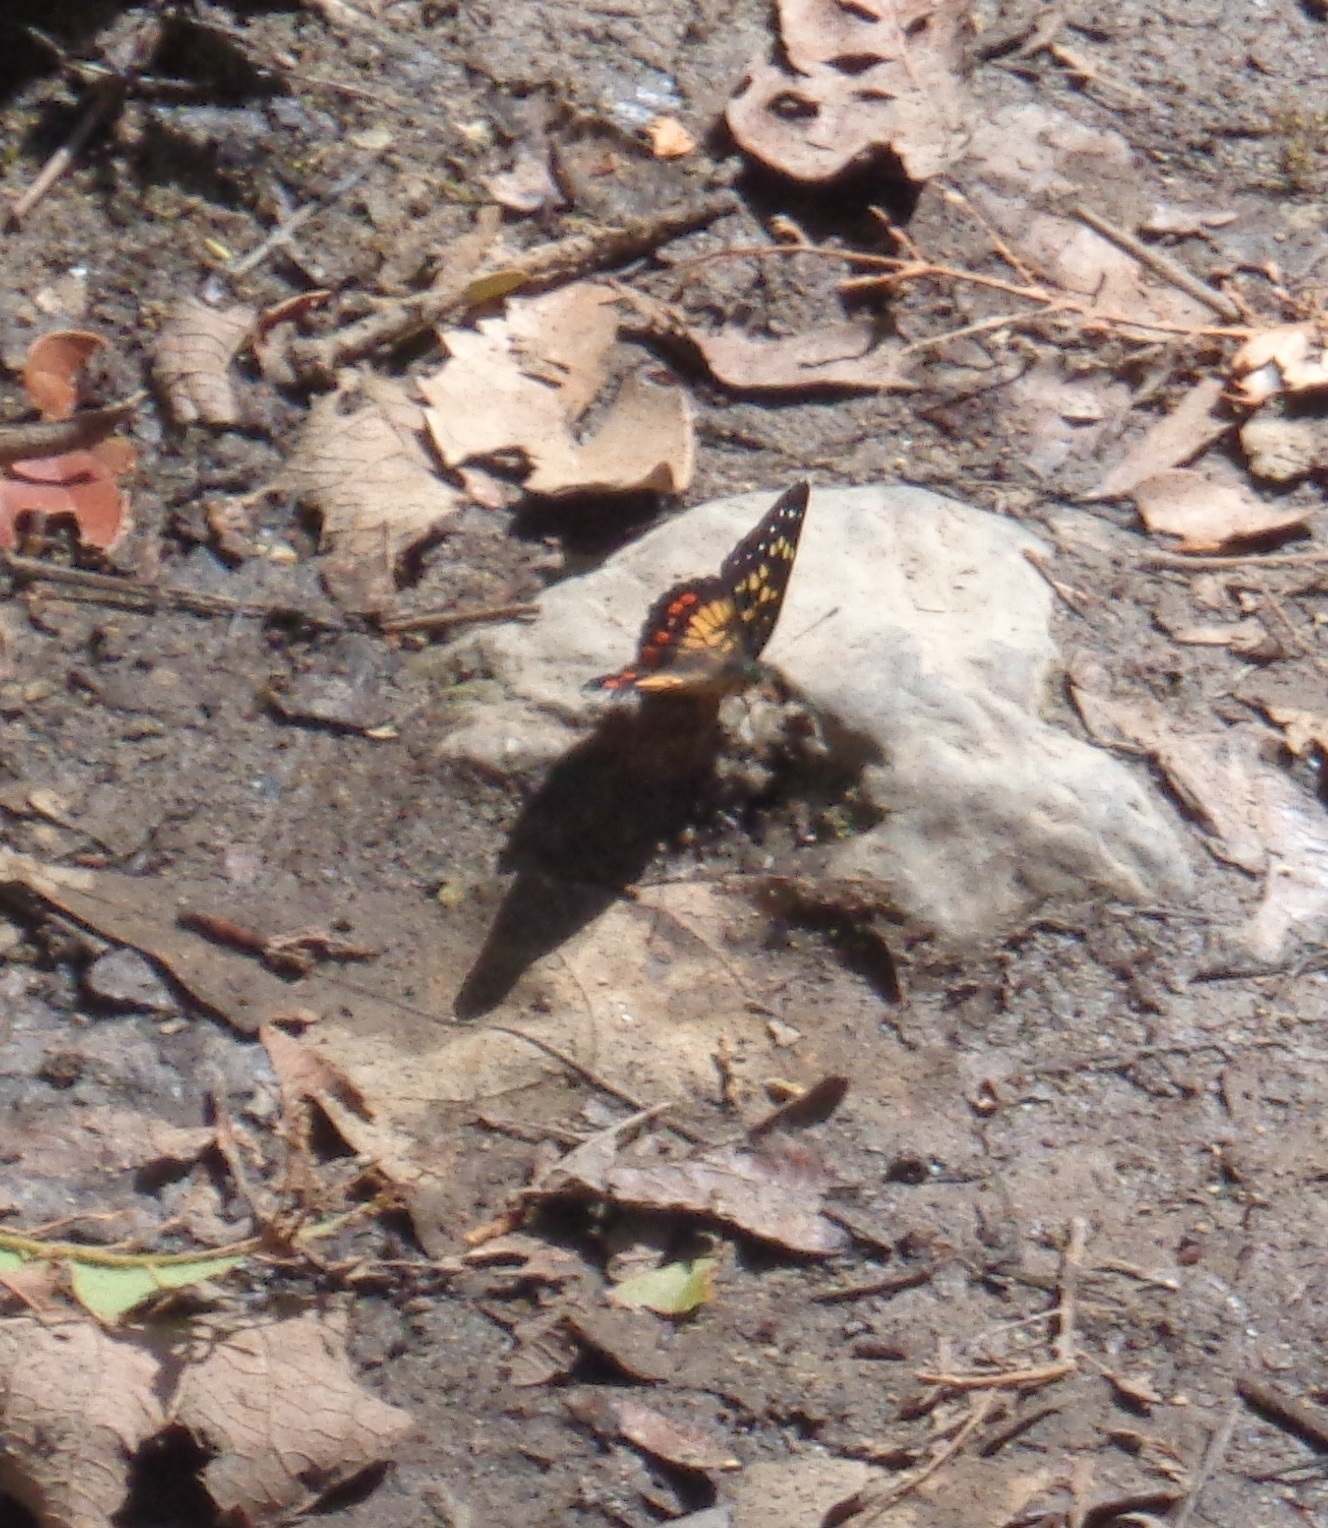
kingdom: Animalia
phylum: Arthropoda
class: Insecta
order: Lepidoptera
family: Nymphalidae
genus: Chlosyne
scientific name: Chlosyne marina
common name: Red-spotted patch
